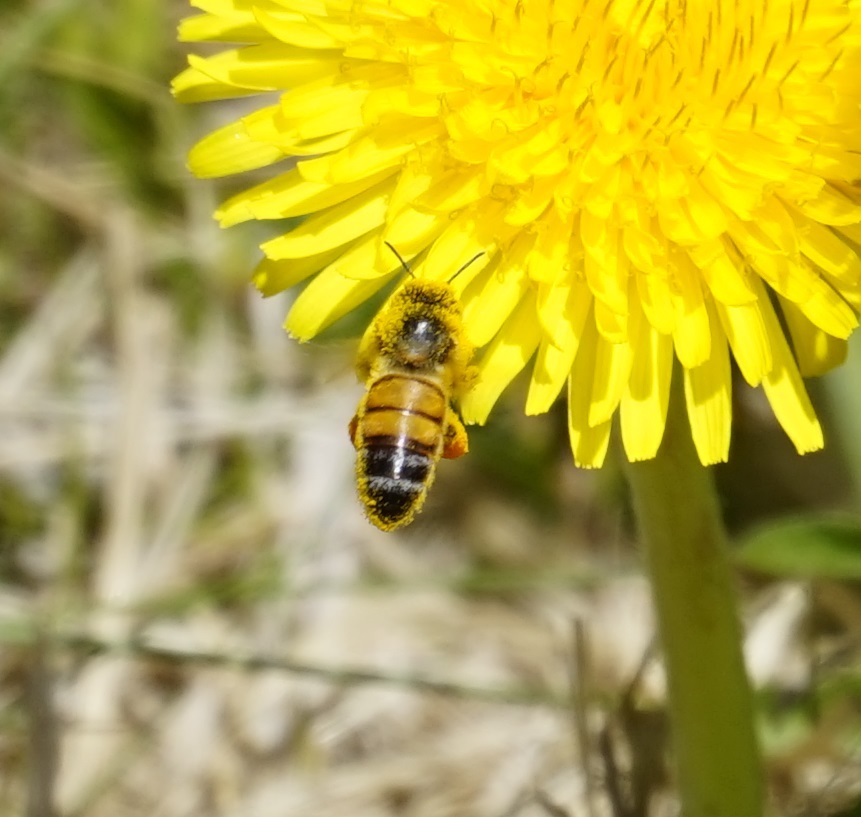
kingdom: Animalia
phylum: Arthropoda
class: Insecta
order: Hymenoptera
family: Apidae
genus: Apis
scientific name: Apis mellifera
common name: Honey bee
